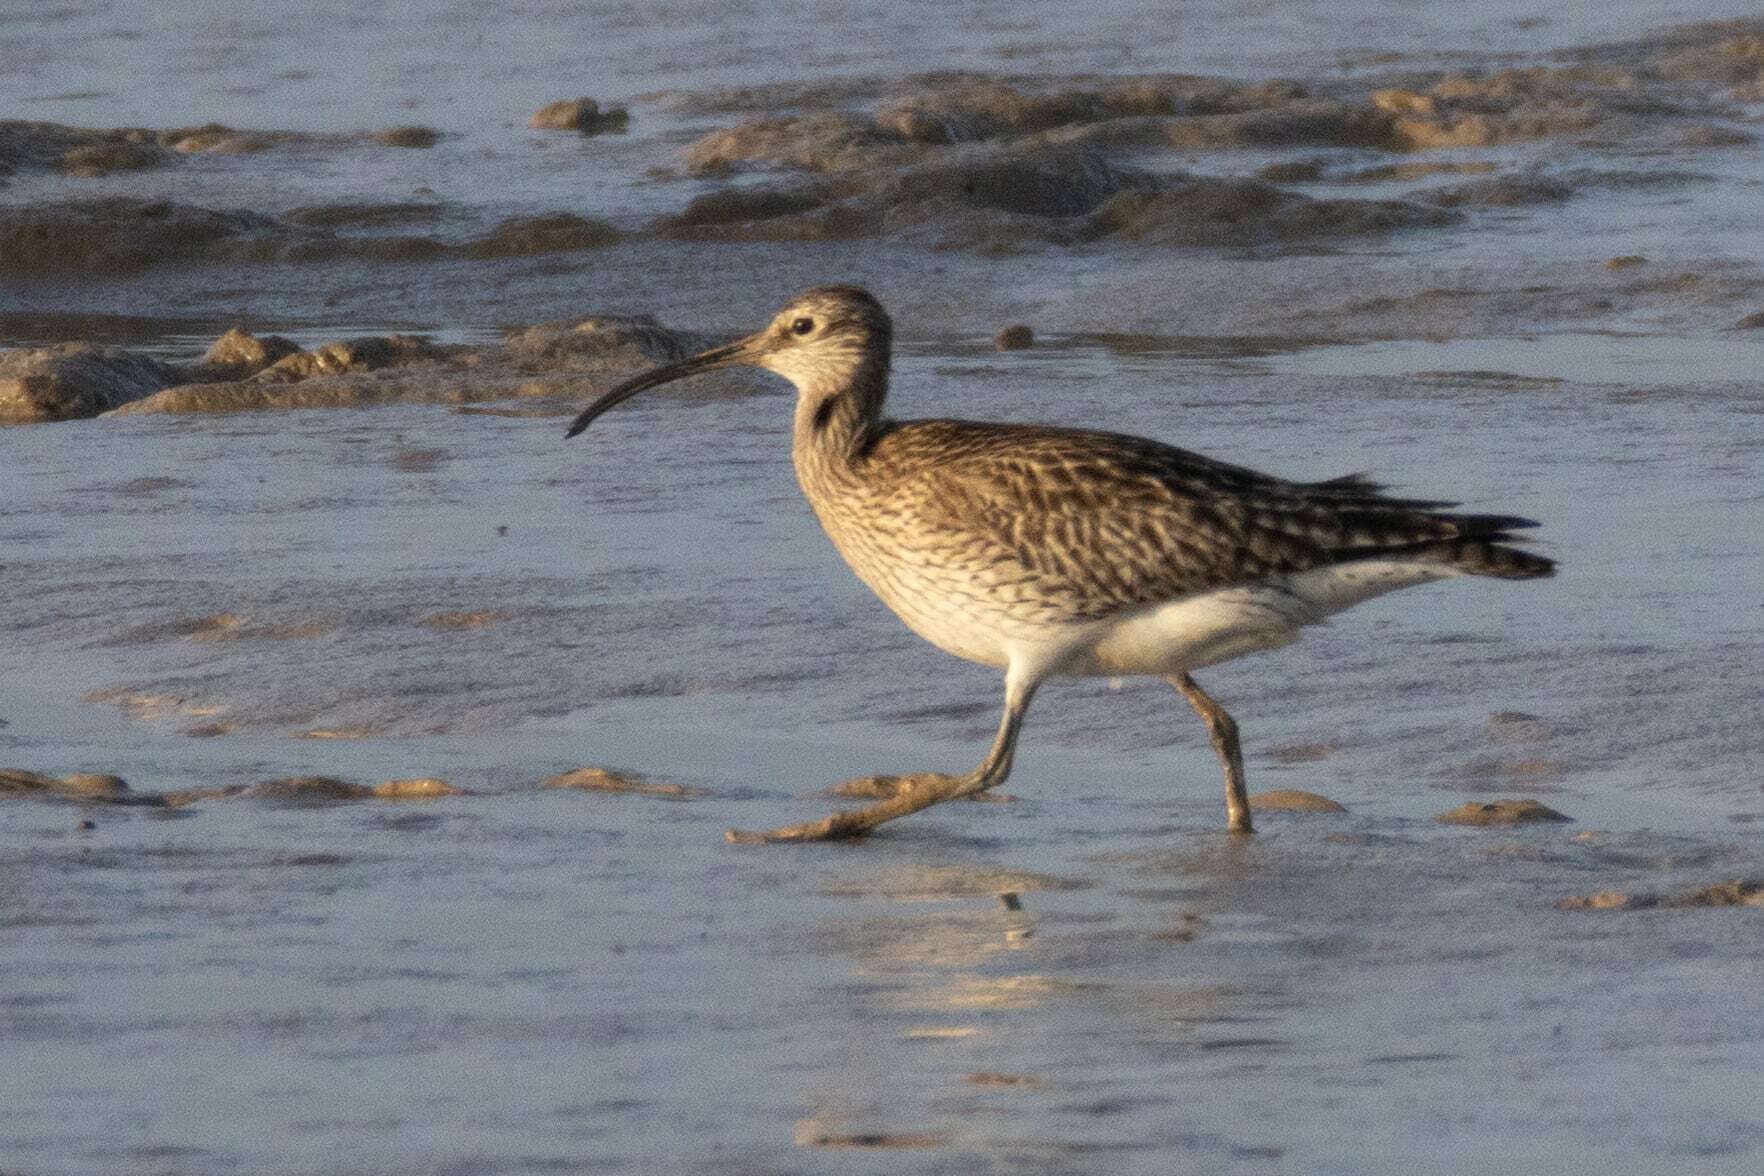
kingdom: Animalia
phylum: Chordata
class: Aves
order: Charadriiformes
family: Scolopacidae
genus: Numenius
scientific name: Numenius phaeopus
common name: Whimbrel
